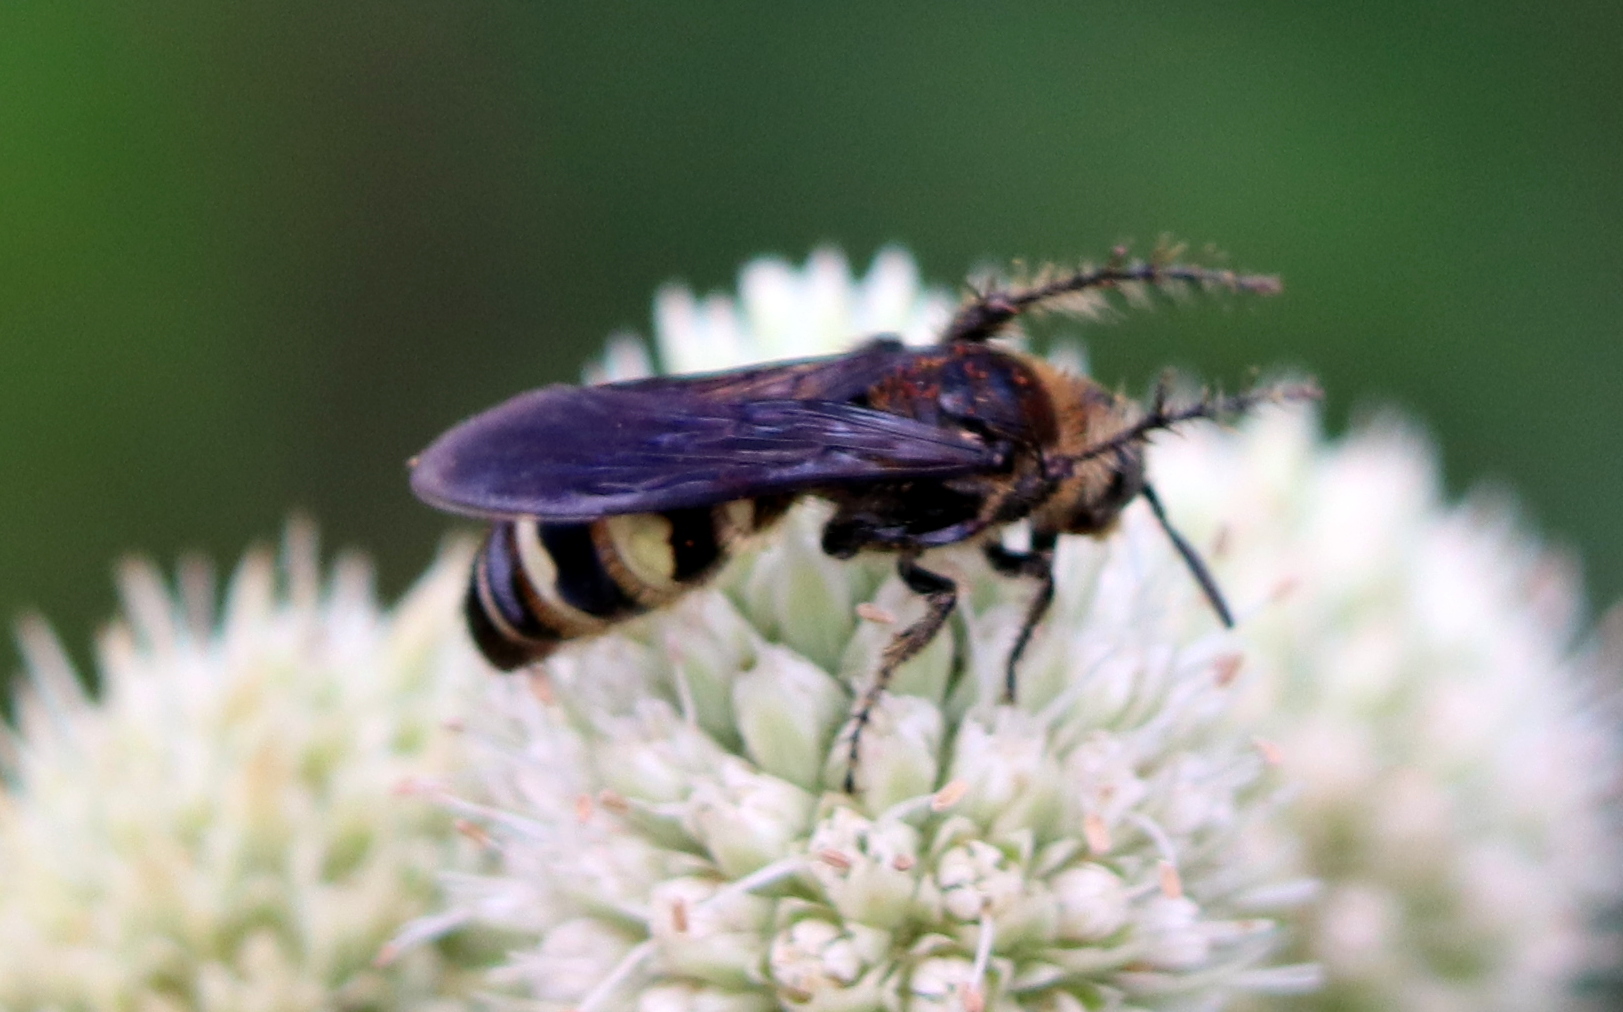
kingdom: Animalia
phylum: Arthropoda
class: Insecta
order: Hymenoptera
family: Scoliidae
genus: Dielis
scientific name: Dielis
